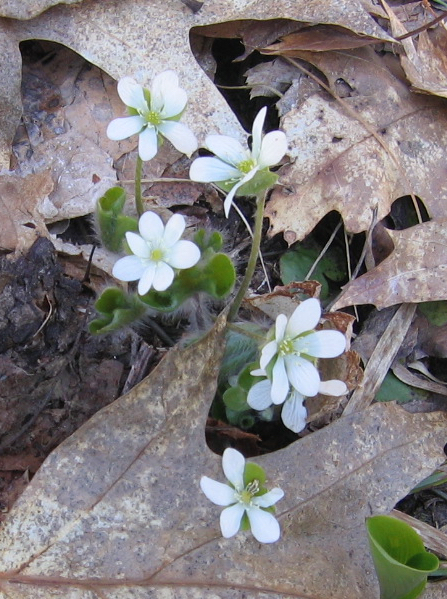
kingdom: Plantae
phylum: Tracheophyta
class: Magnoliopsida
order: Ranunculales
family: Ranunculaceae
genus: Hepatica
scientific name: Hepatica americana
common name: American hepatica
